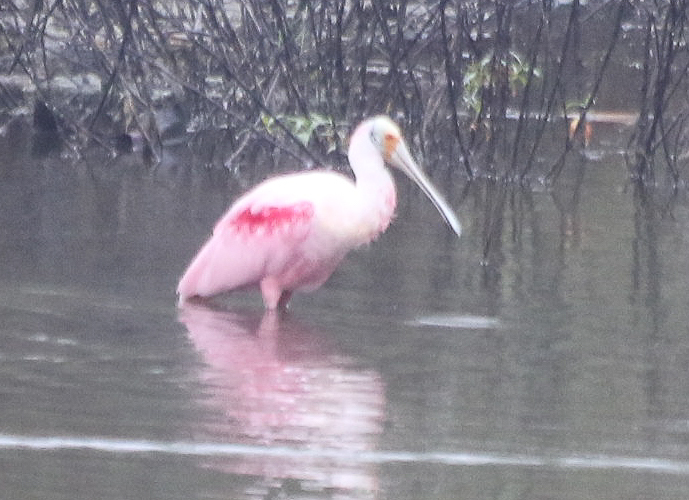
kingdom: Animalia
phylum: Chordata
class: Aves
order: Pelecaniformes
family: Threskiornithidae
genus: Platalea
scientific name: Platalea ajaja
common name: Roseate spoonbill
